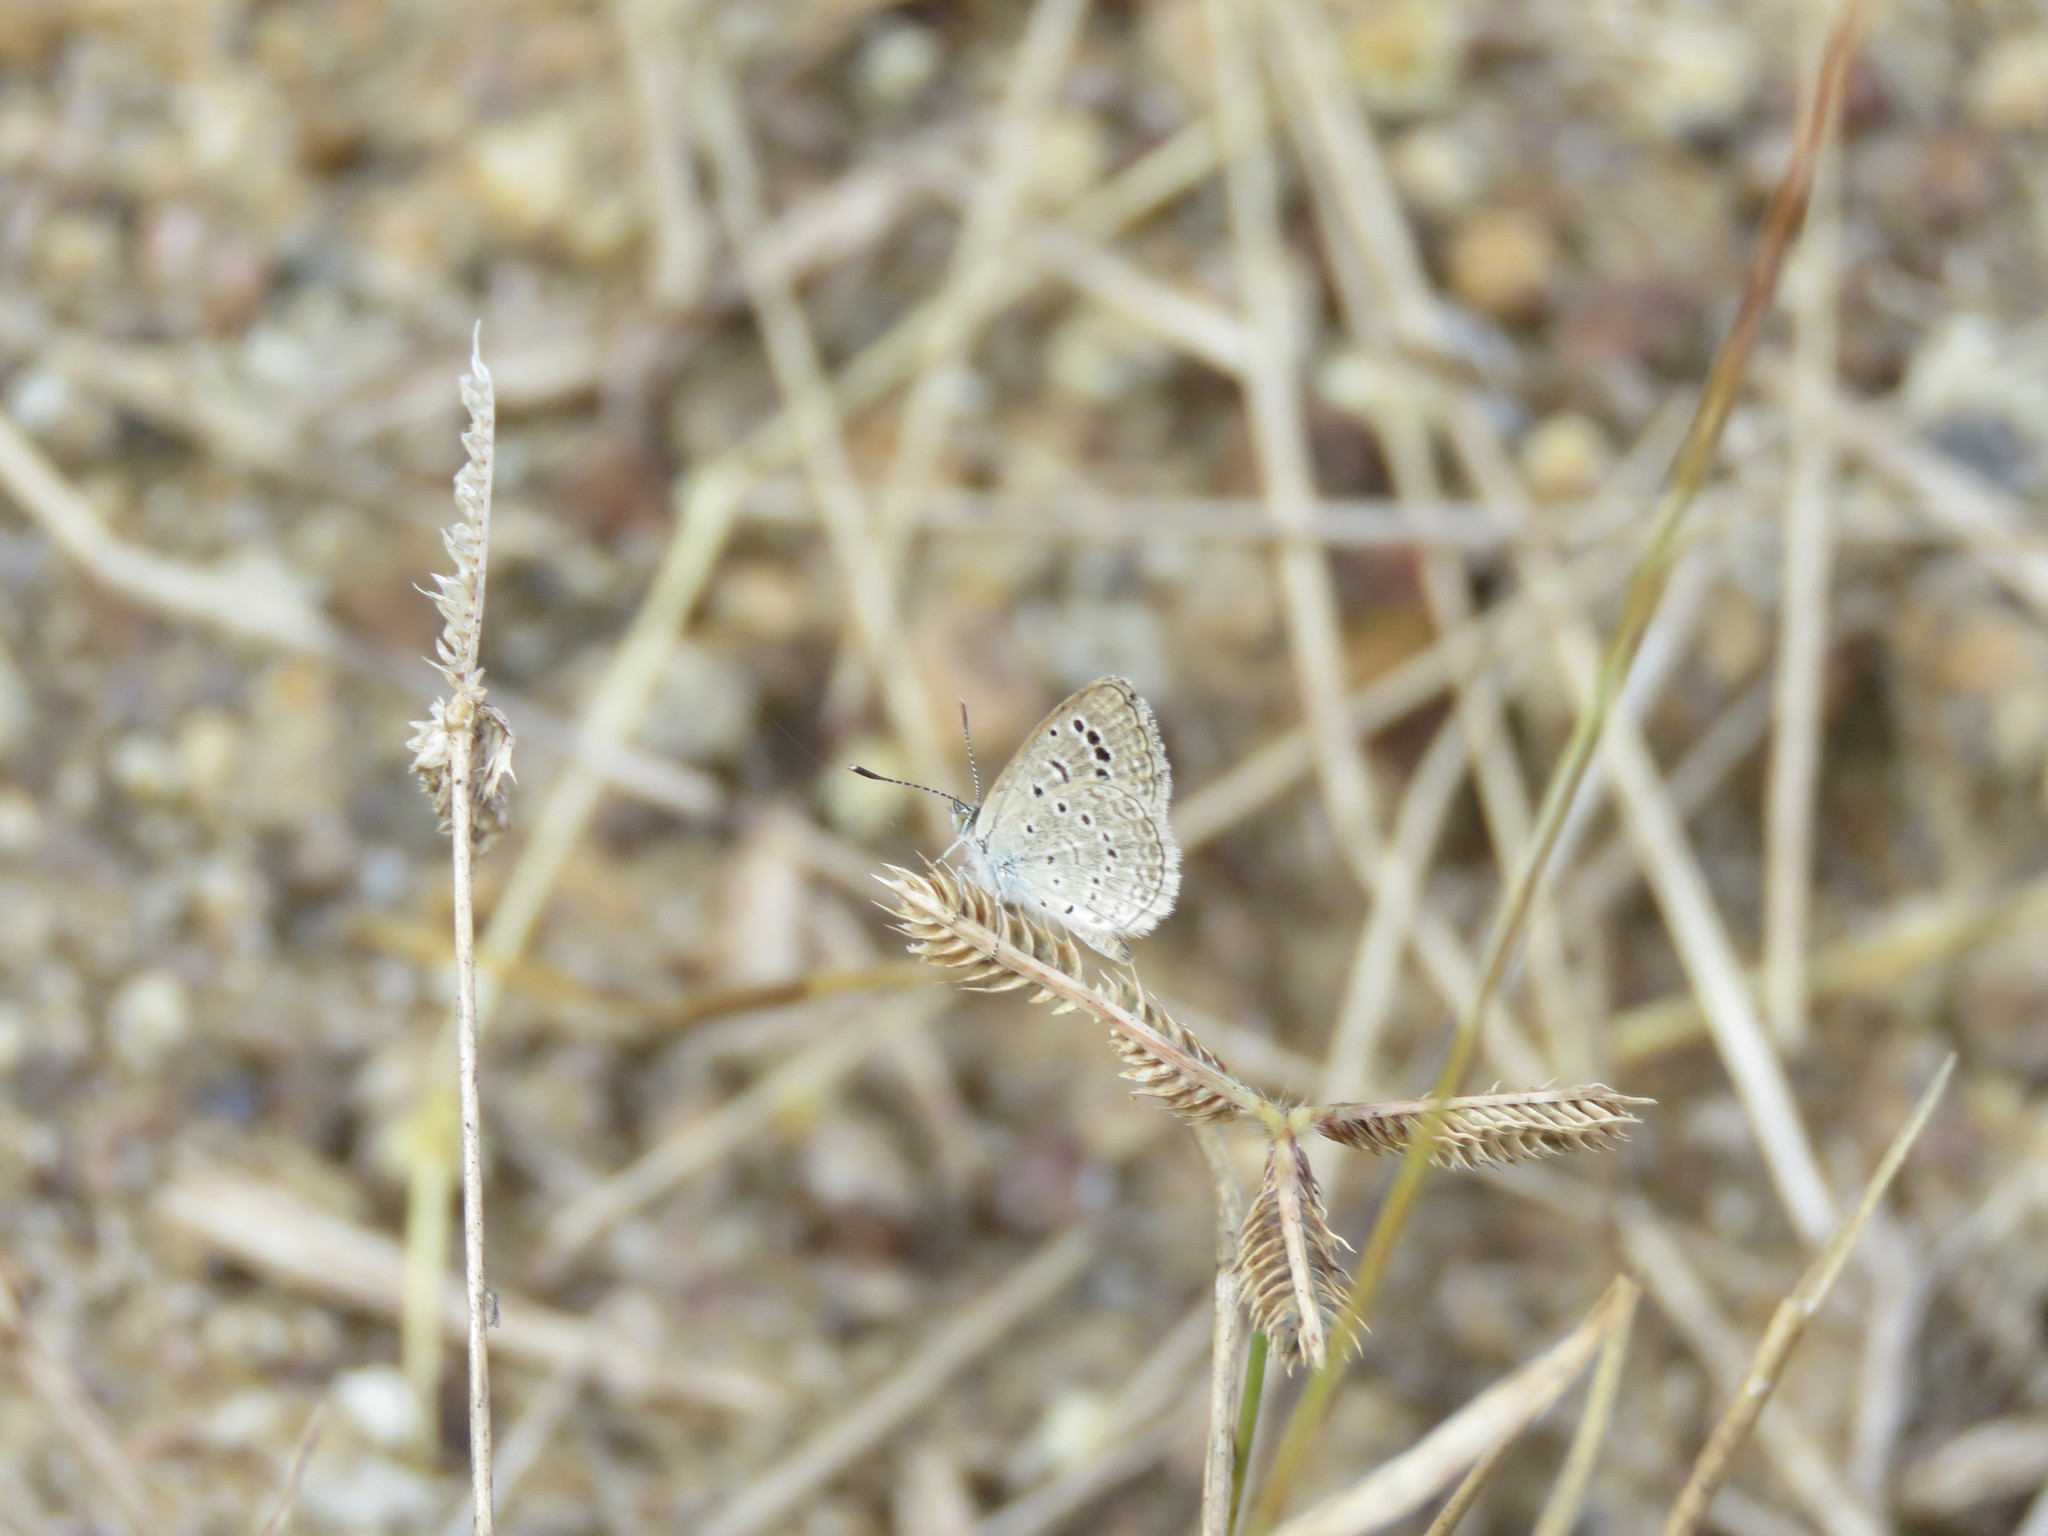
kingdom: Animalia
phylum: Arthropoda
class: Insecta
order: Lepidoptera
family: Lycaenidae
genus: Zizeeria
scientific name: Zizeeria karsandra
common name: Dark grass blue
